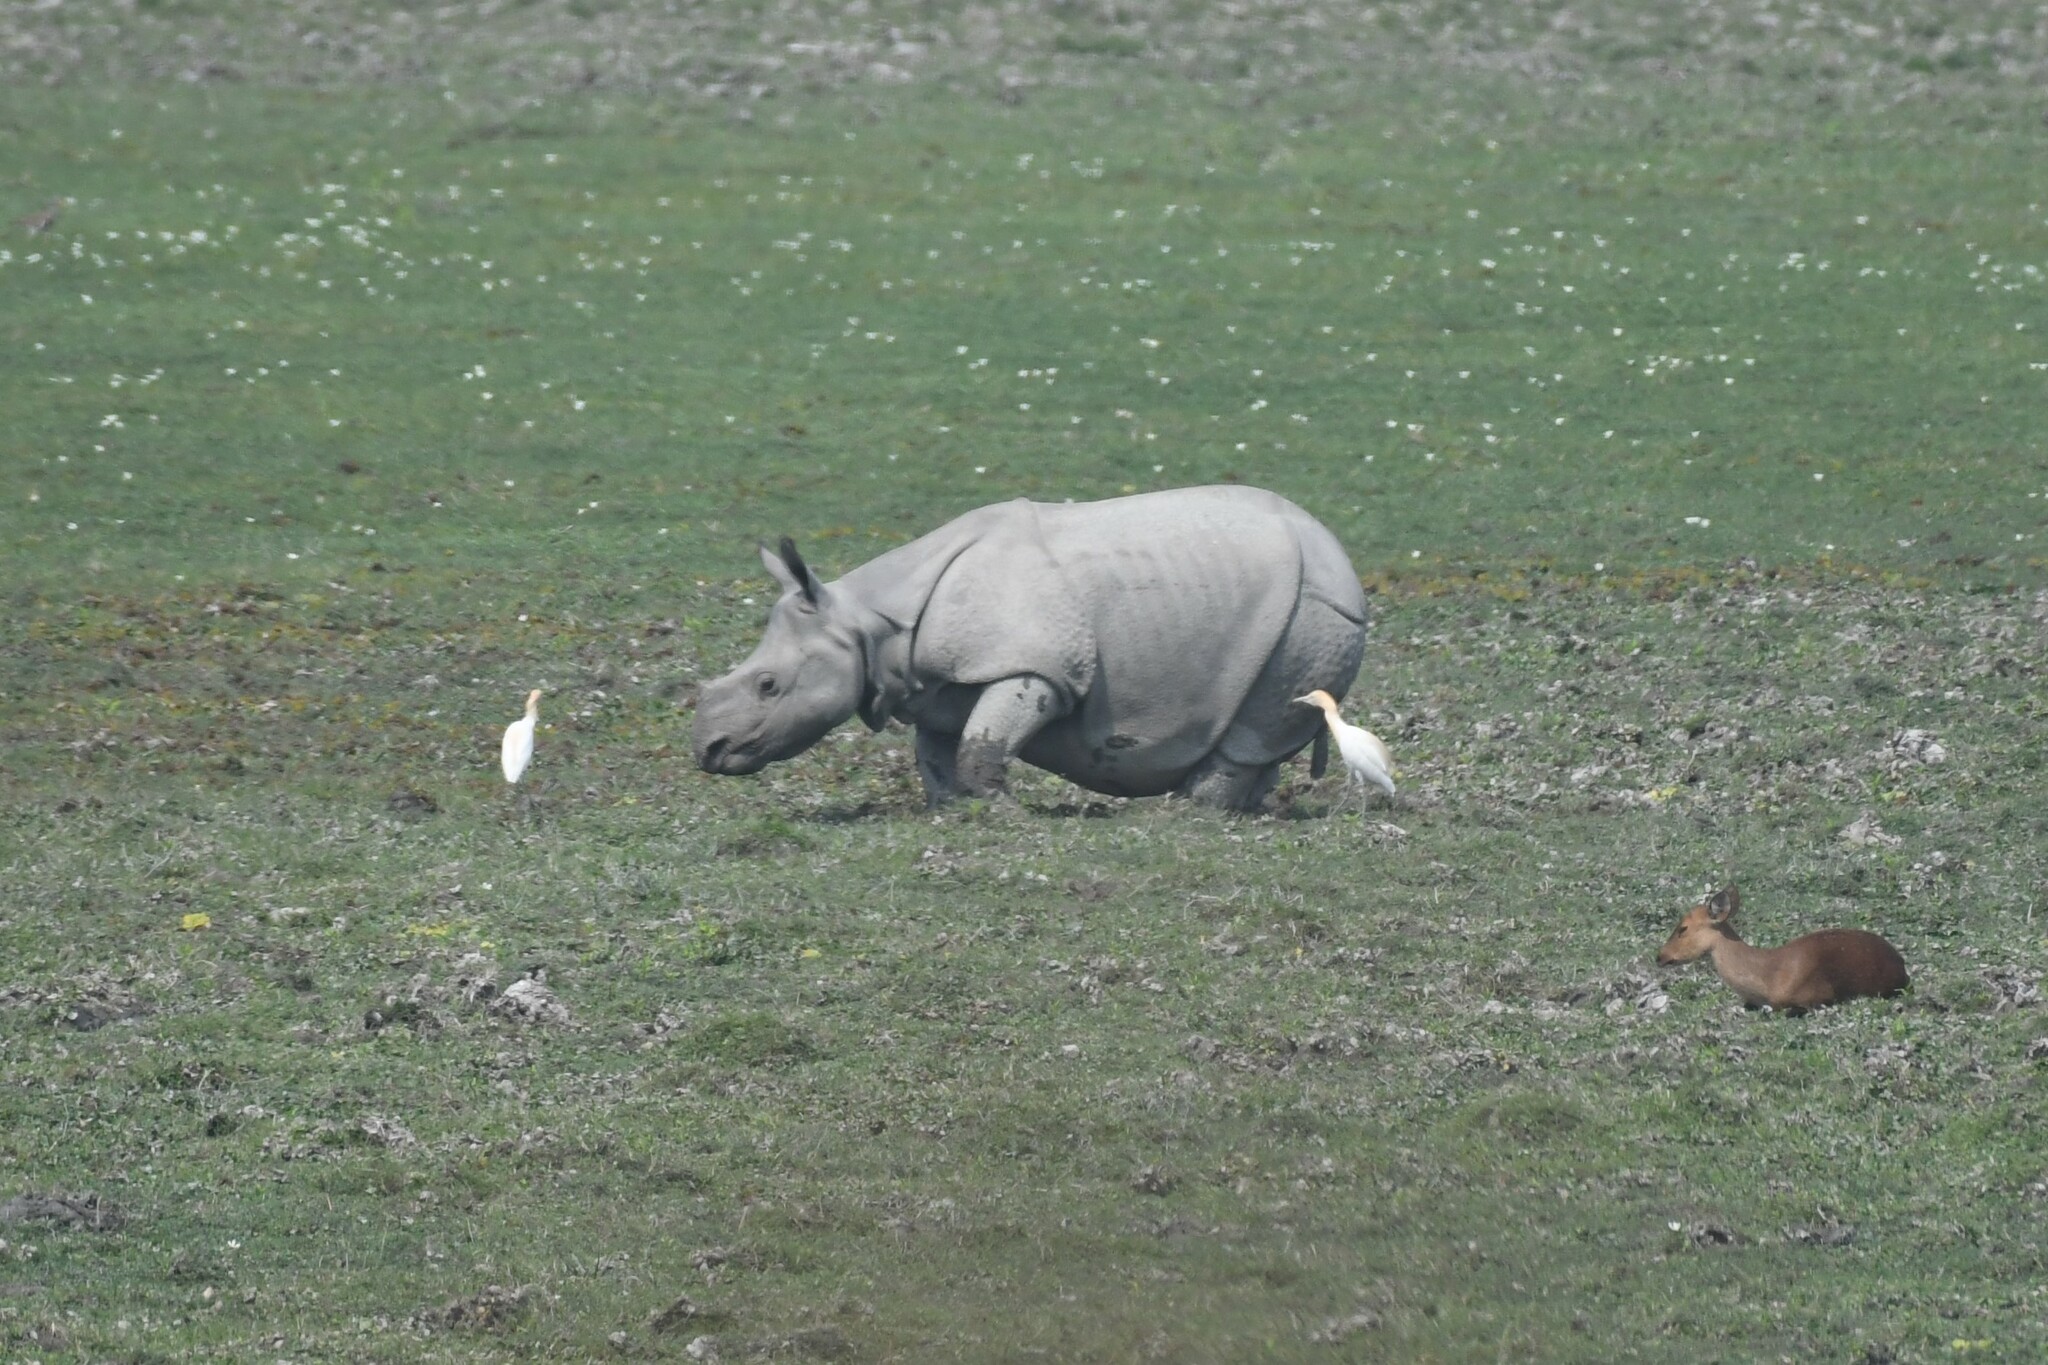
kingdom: Animalia
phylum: Chordata
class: Mammalia
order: Perissodactyla
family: Rhinocerotidae
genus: Rhinoceros
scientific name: Rhinoceros unicornis
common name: Indian rhinoceros
